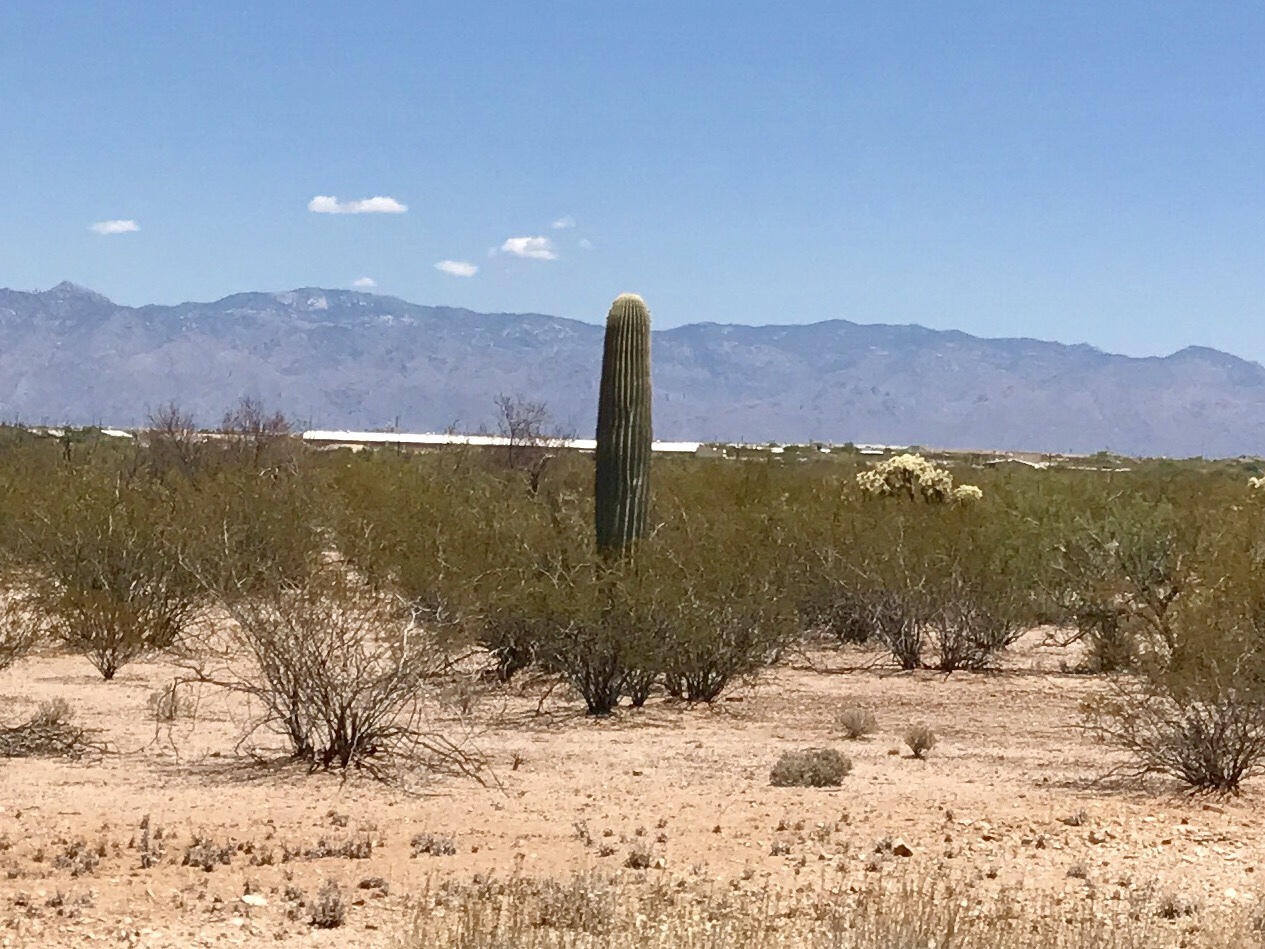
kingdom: Plantae
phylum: Tracheophyta
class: Magnoliopsida
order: Caryophyllales
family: Cactaceae
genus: Carnegiea
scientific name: Carnegiea gigantea
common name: Saguaro
